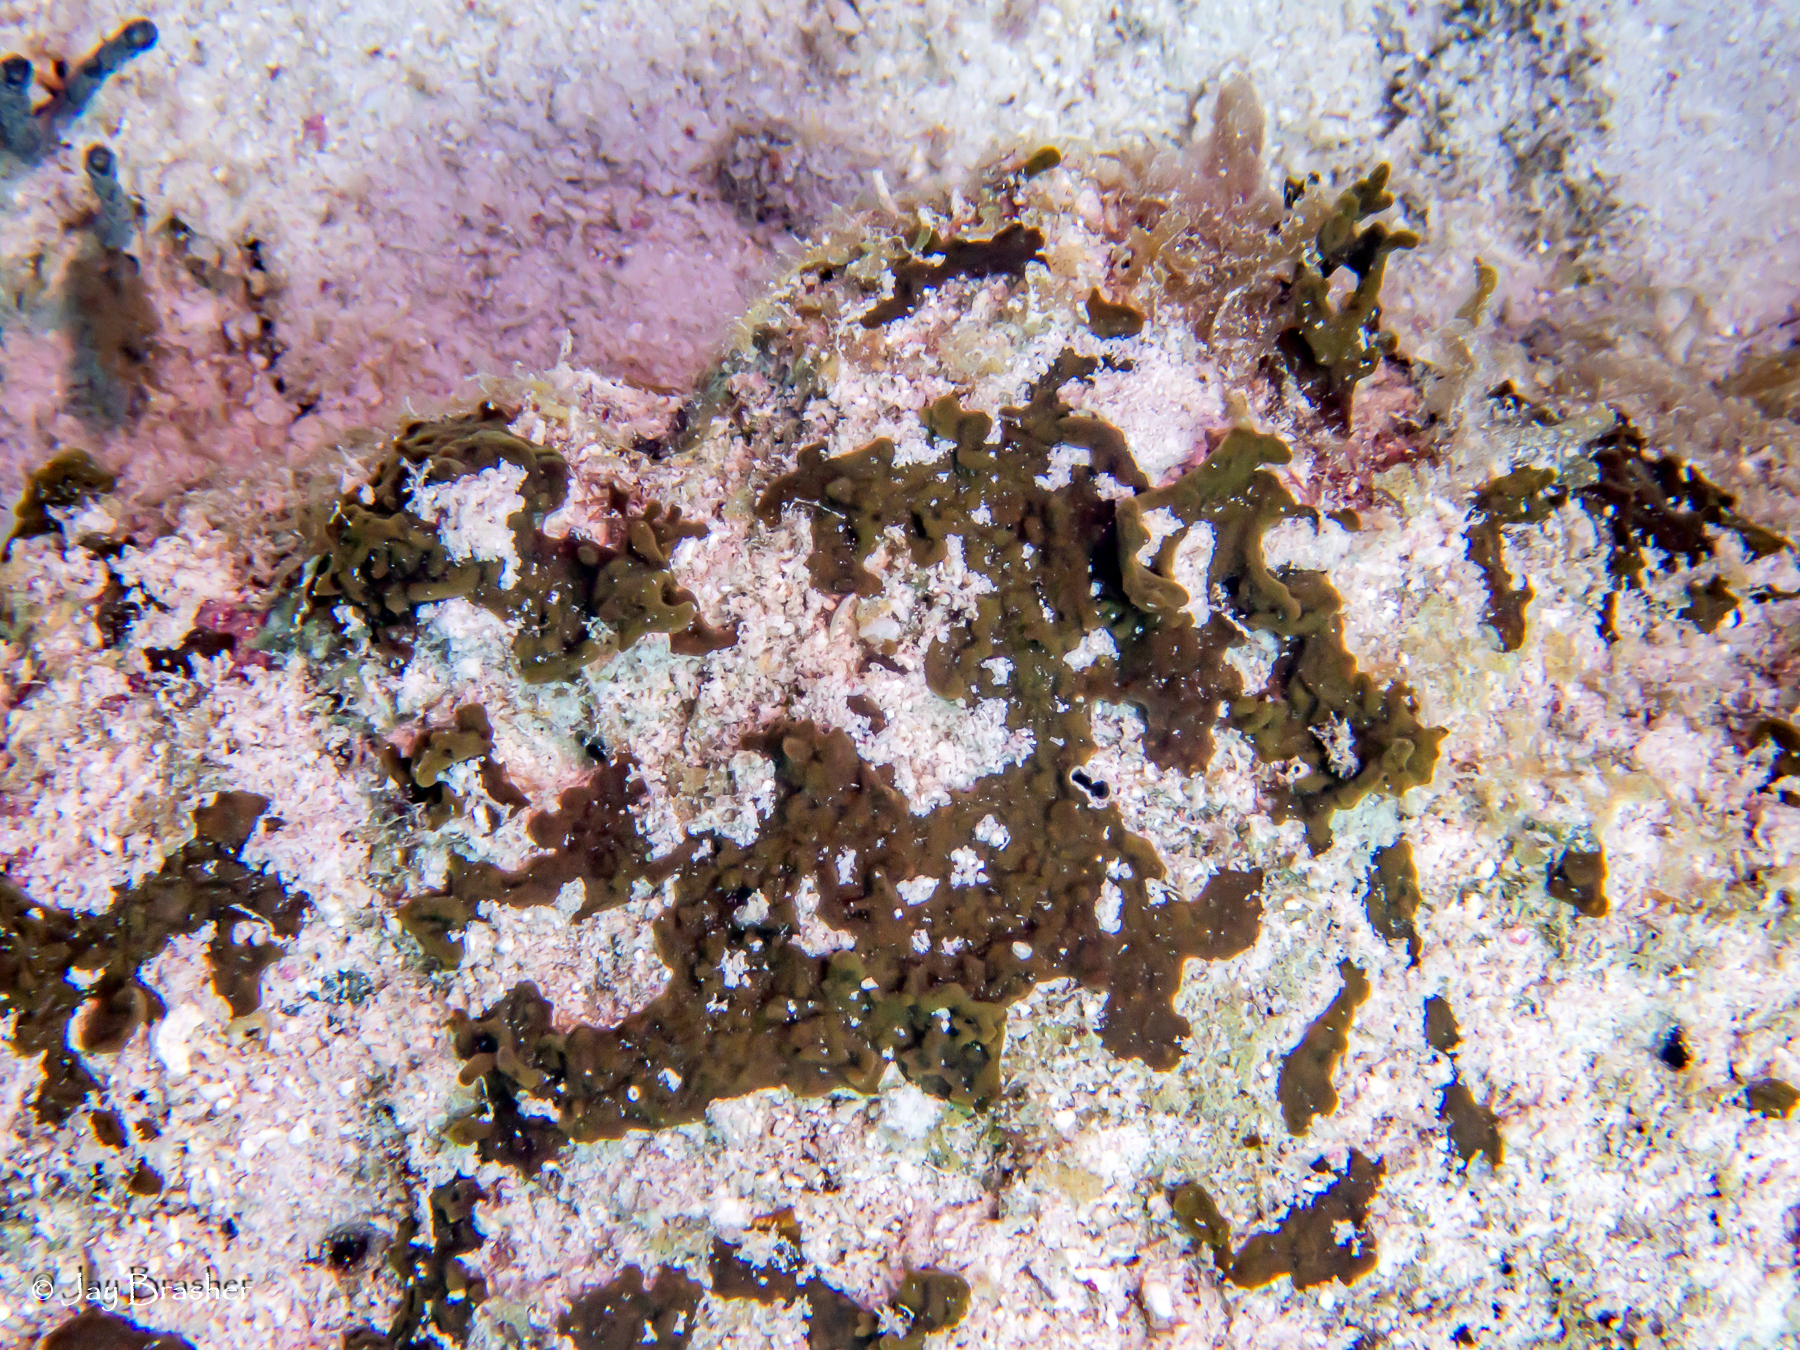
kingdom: Animalia
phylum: Porifera
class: Demospongiae
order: Bubarida
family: Dictyonellidae
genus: Dictyonella
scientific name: Dictyonella funicularis
